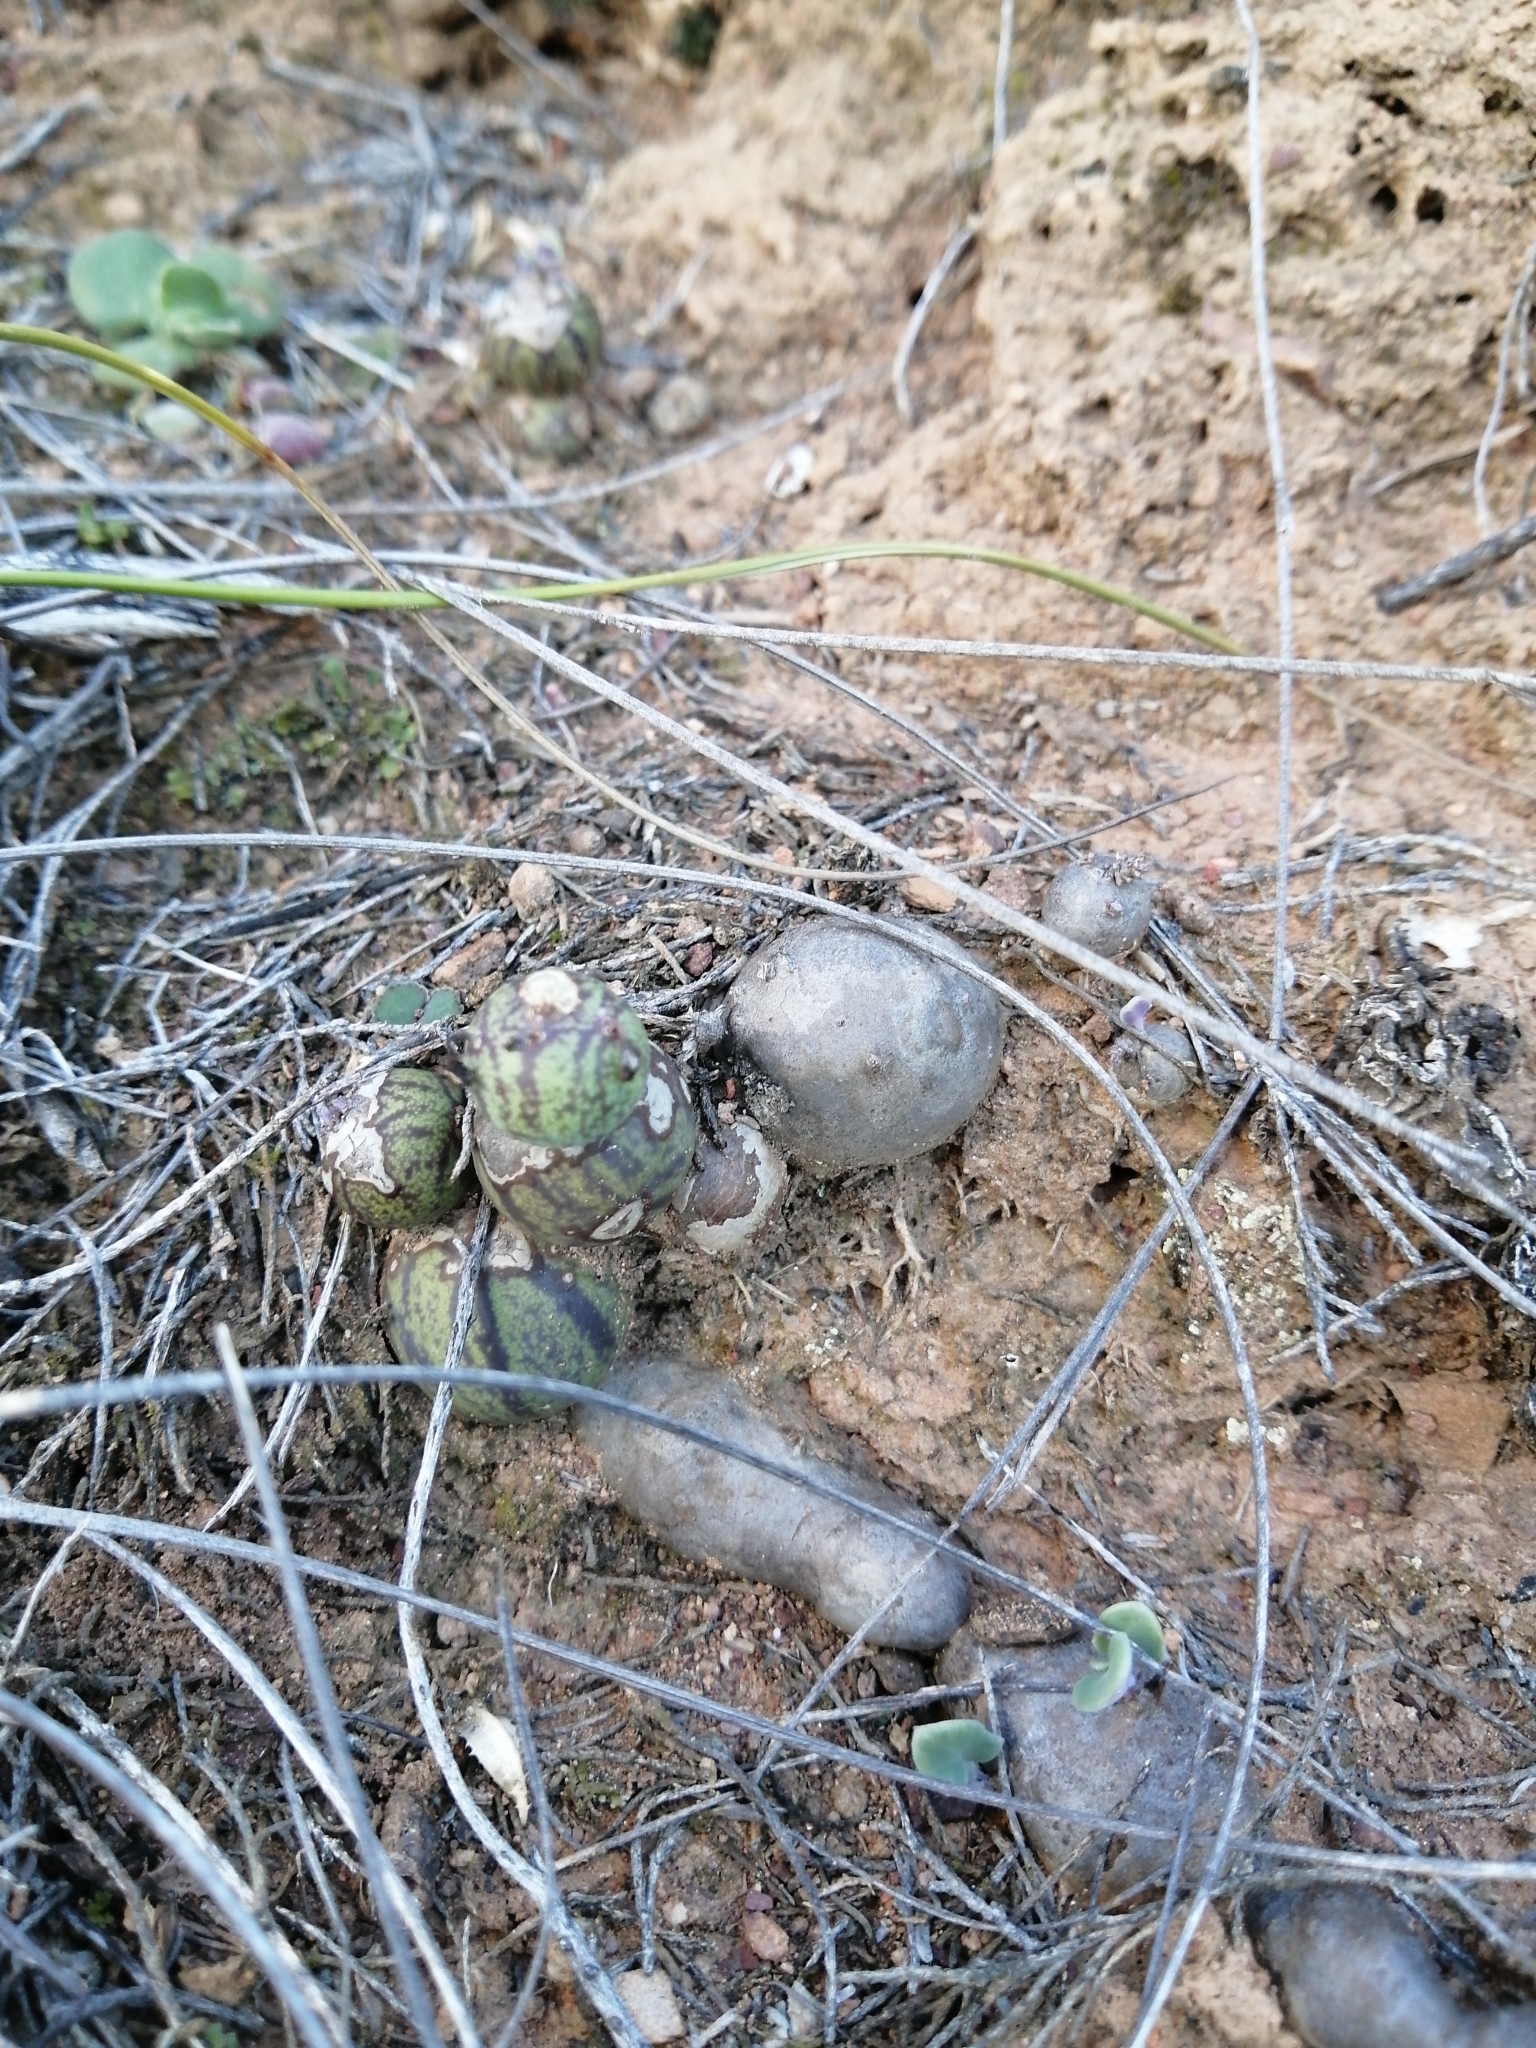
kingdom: Plantae
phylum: Tracheophyta
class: Magnoliopsida
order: Asterales
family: Asteraceae
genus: Curio
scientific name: Curio articulatus
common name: Candleplant
